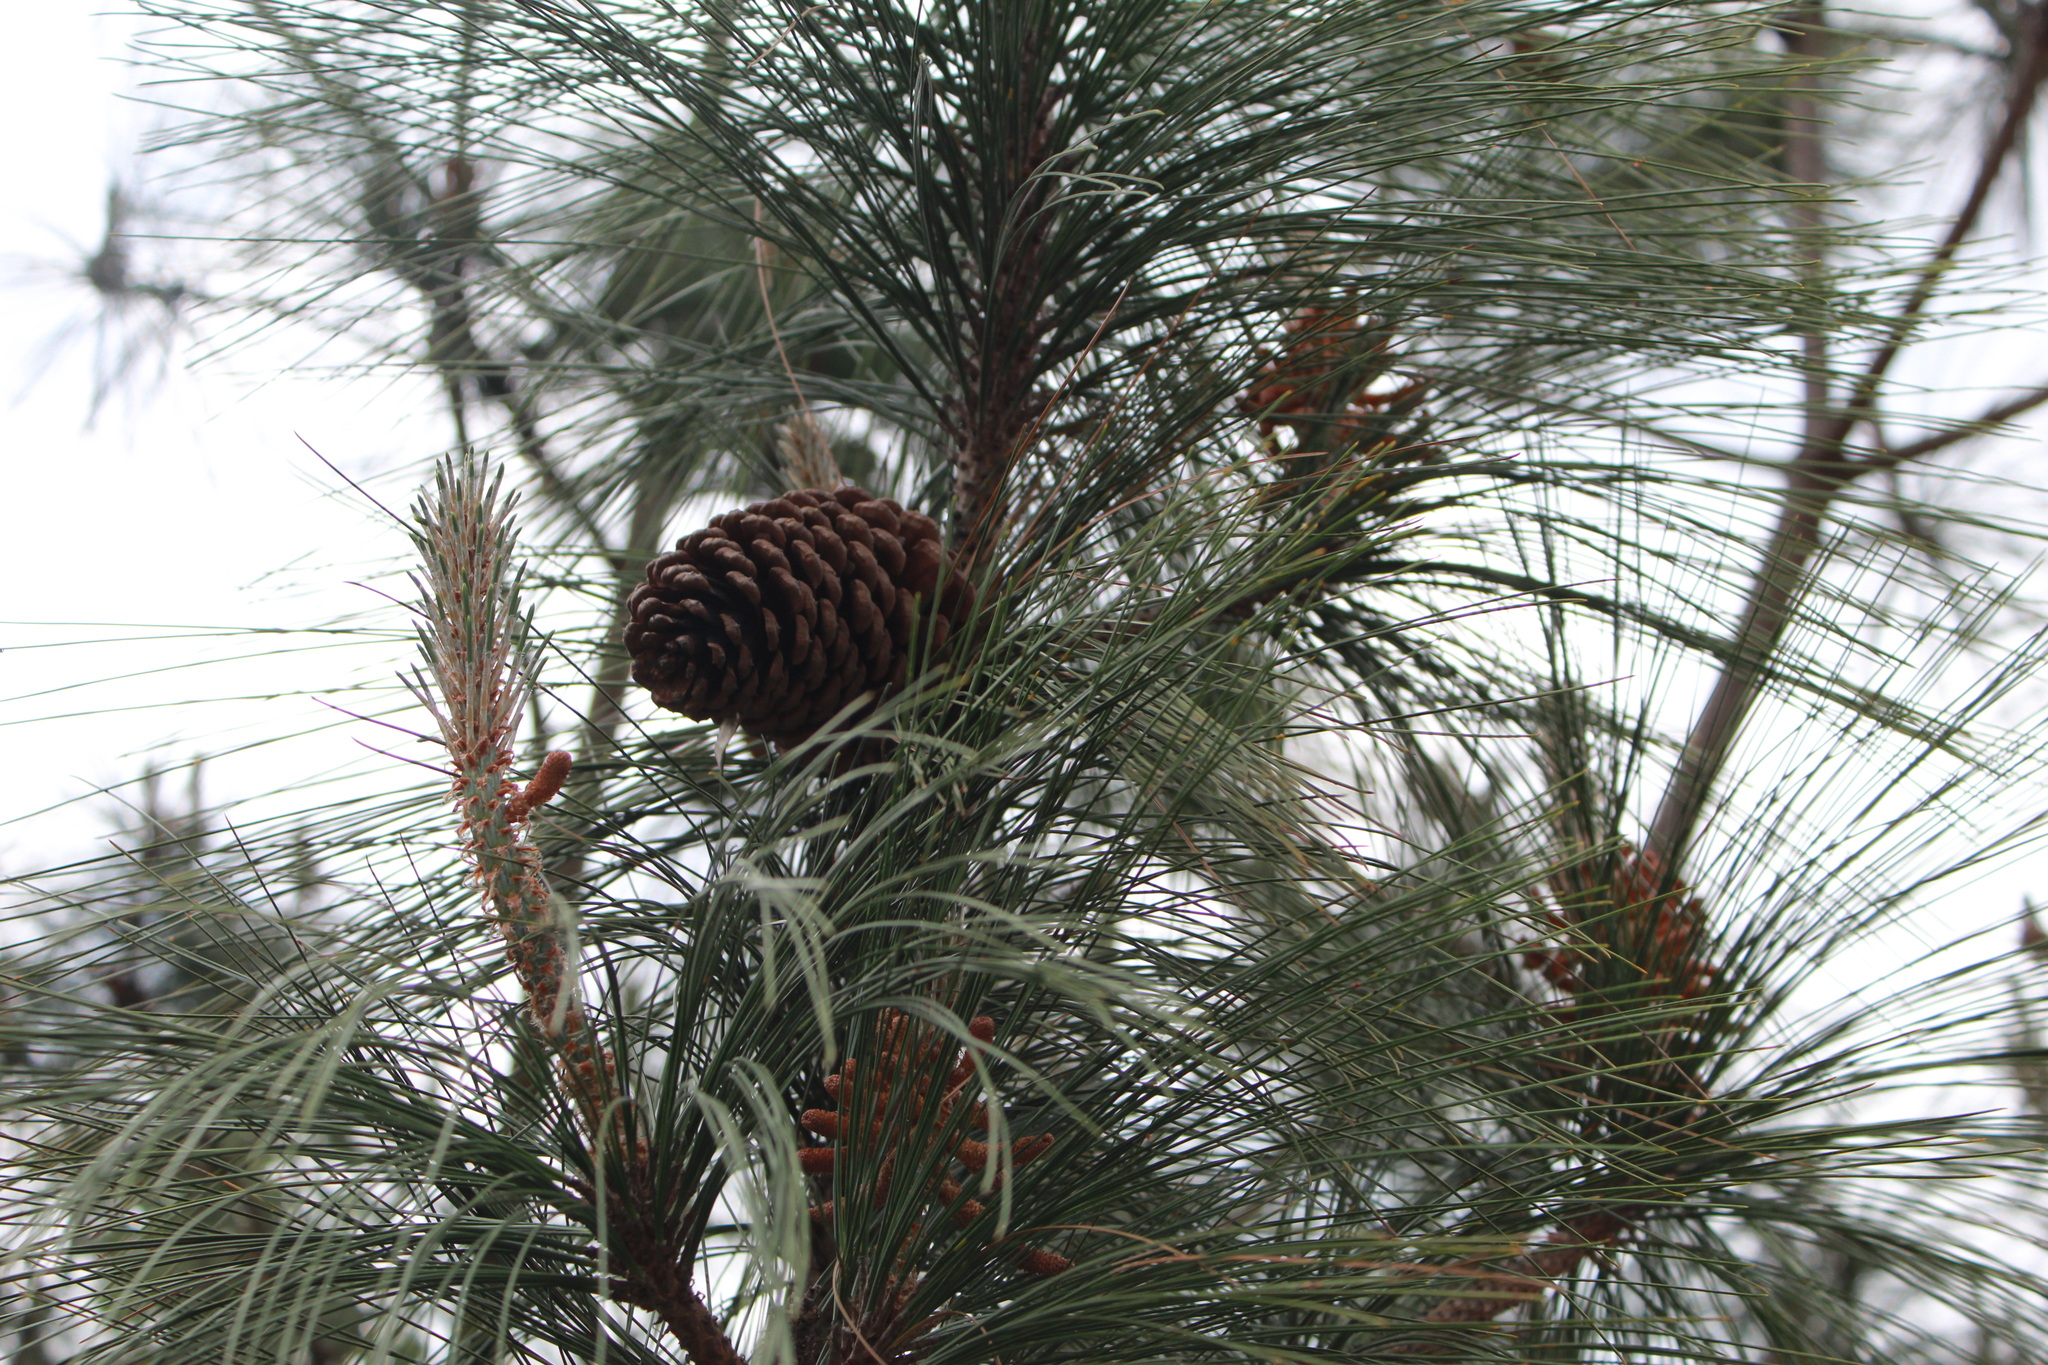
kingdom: Plantae
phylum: Tracheophyta
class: Pinopsida
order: Pinales
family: Pinaceae
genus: Pinus
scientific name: Pinus pseudostrobus
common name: False weymouth pine
